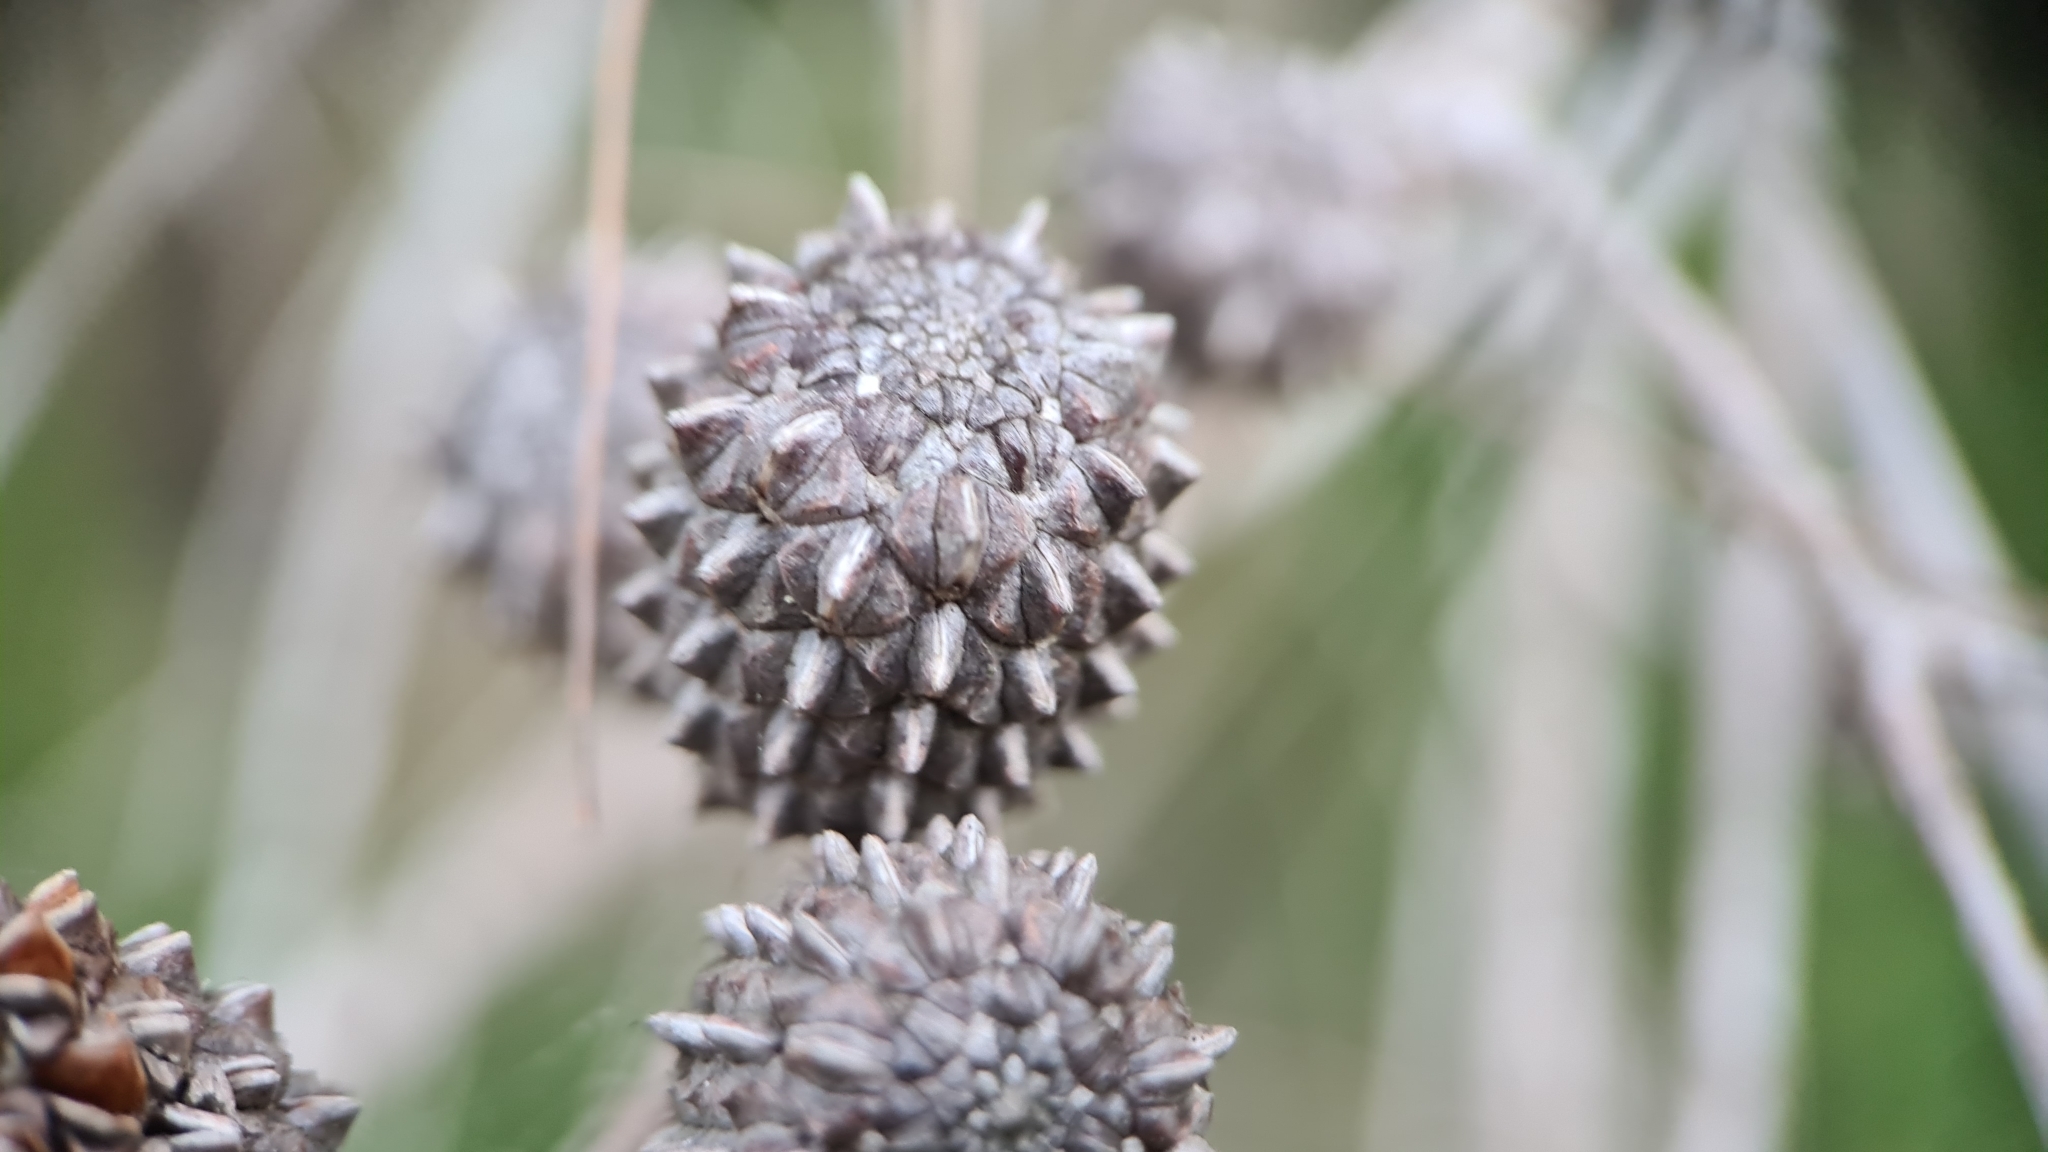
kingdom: Plantae
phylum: Tracheophyta
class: Magnoliopsida
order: Fagales
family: Casuarinaceae
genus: Allocasuarina
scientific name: Allocasuarina littoralis
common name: Black she-oak
